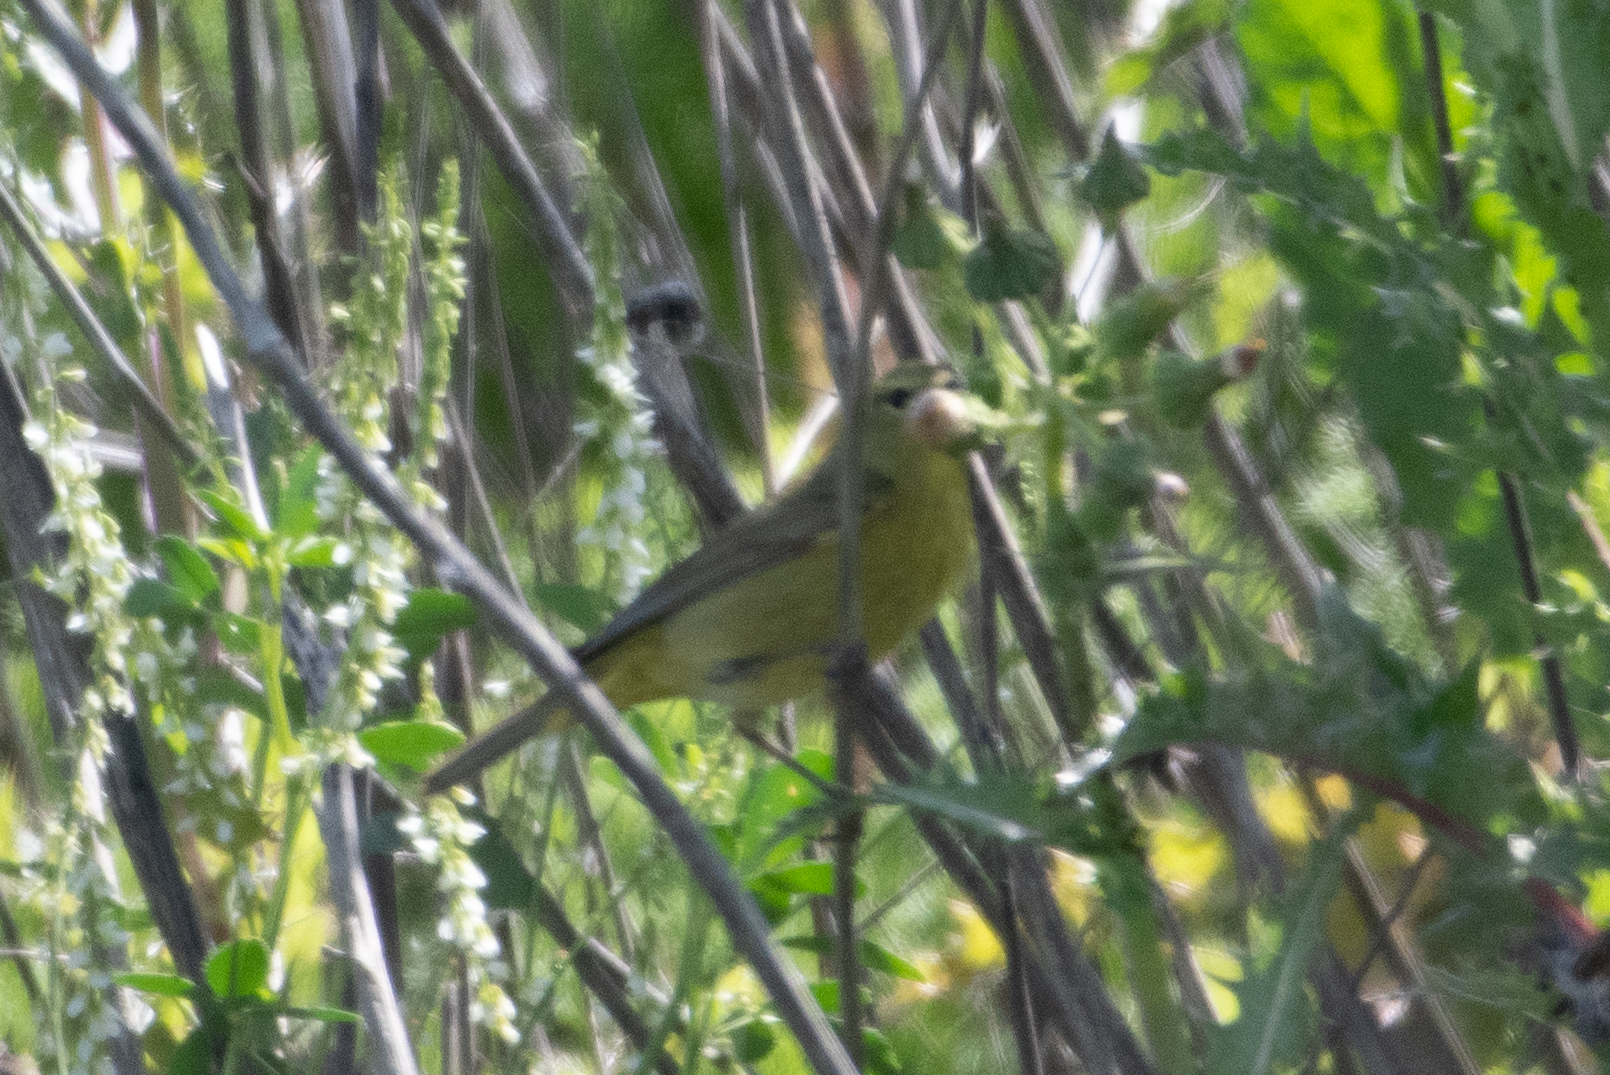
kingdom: Animalia
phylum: Chordata
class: Aves
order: Passeriformes
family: Parulidae
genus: Leiothlypis
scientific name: Leiothlypis celata
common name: Orange-crowned warbler
